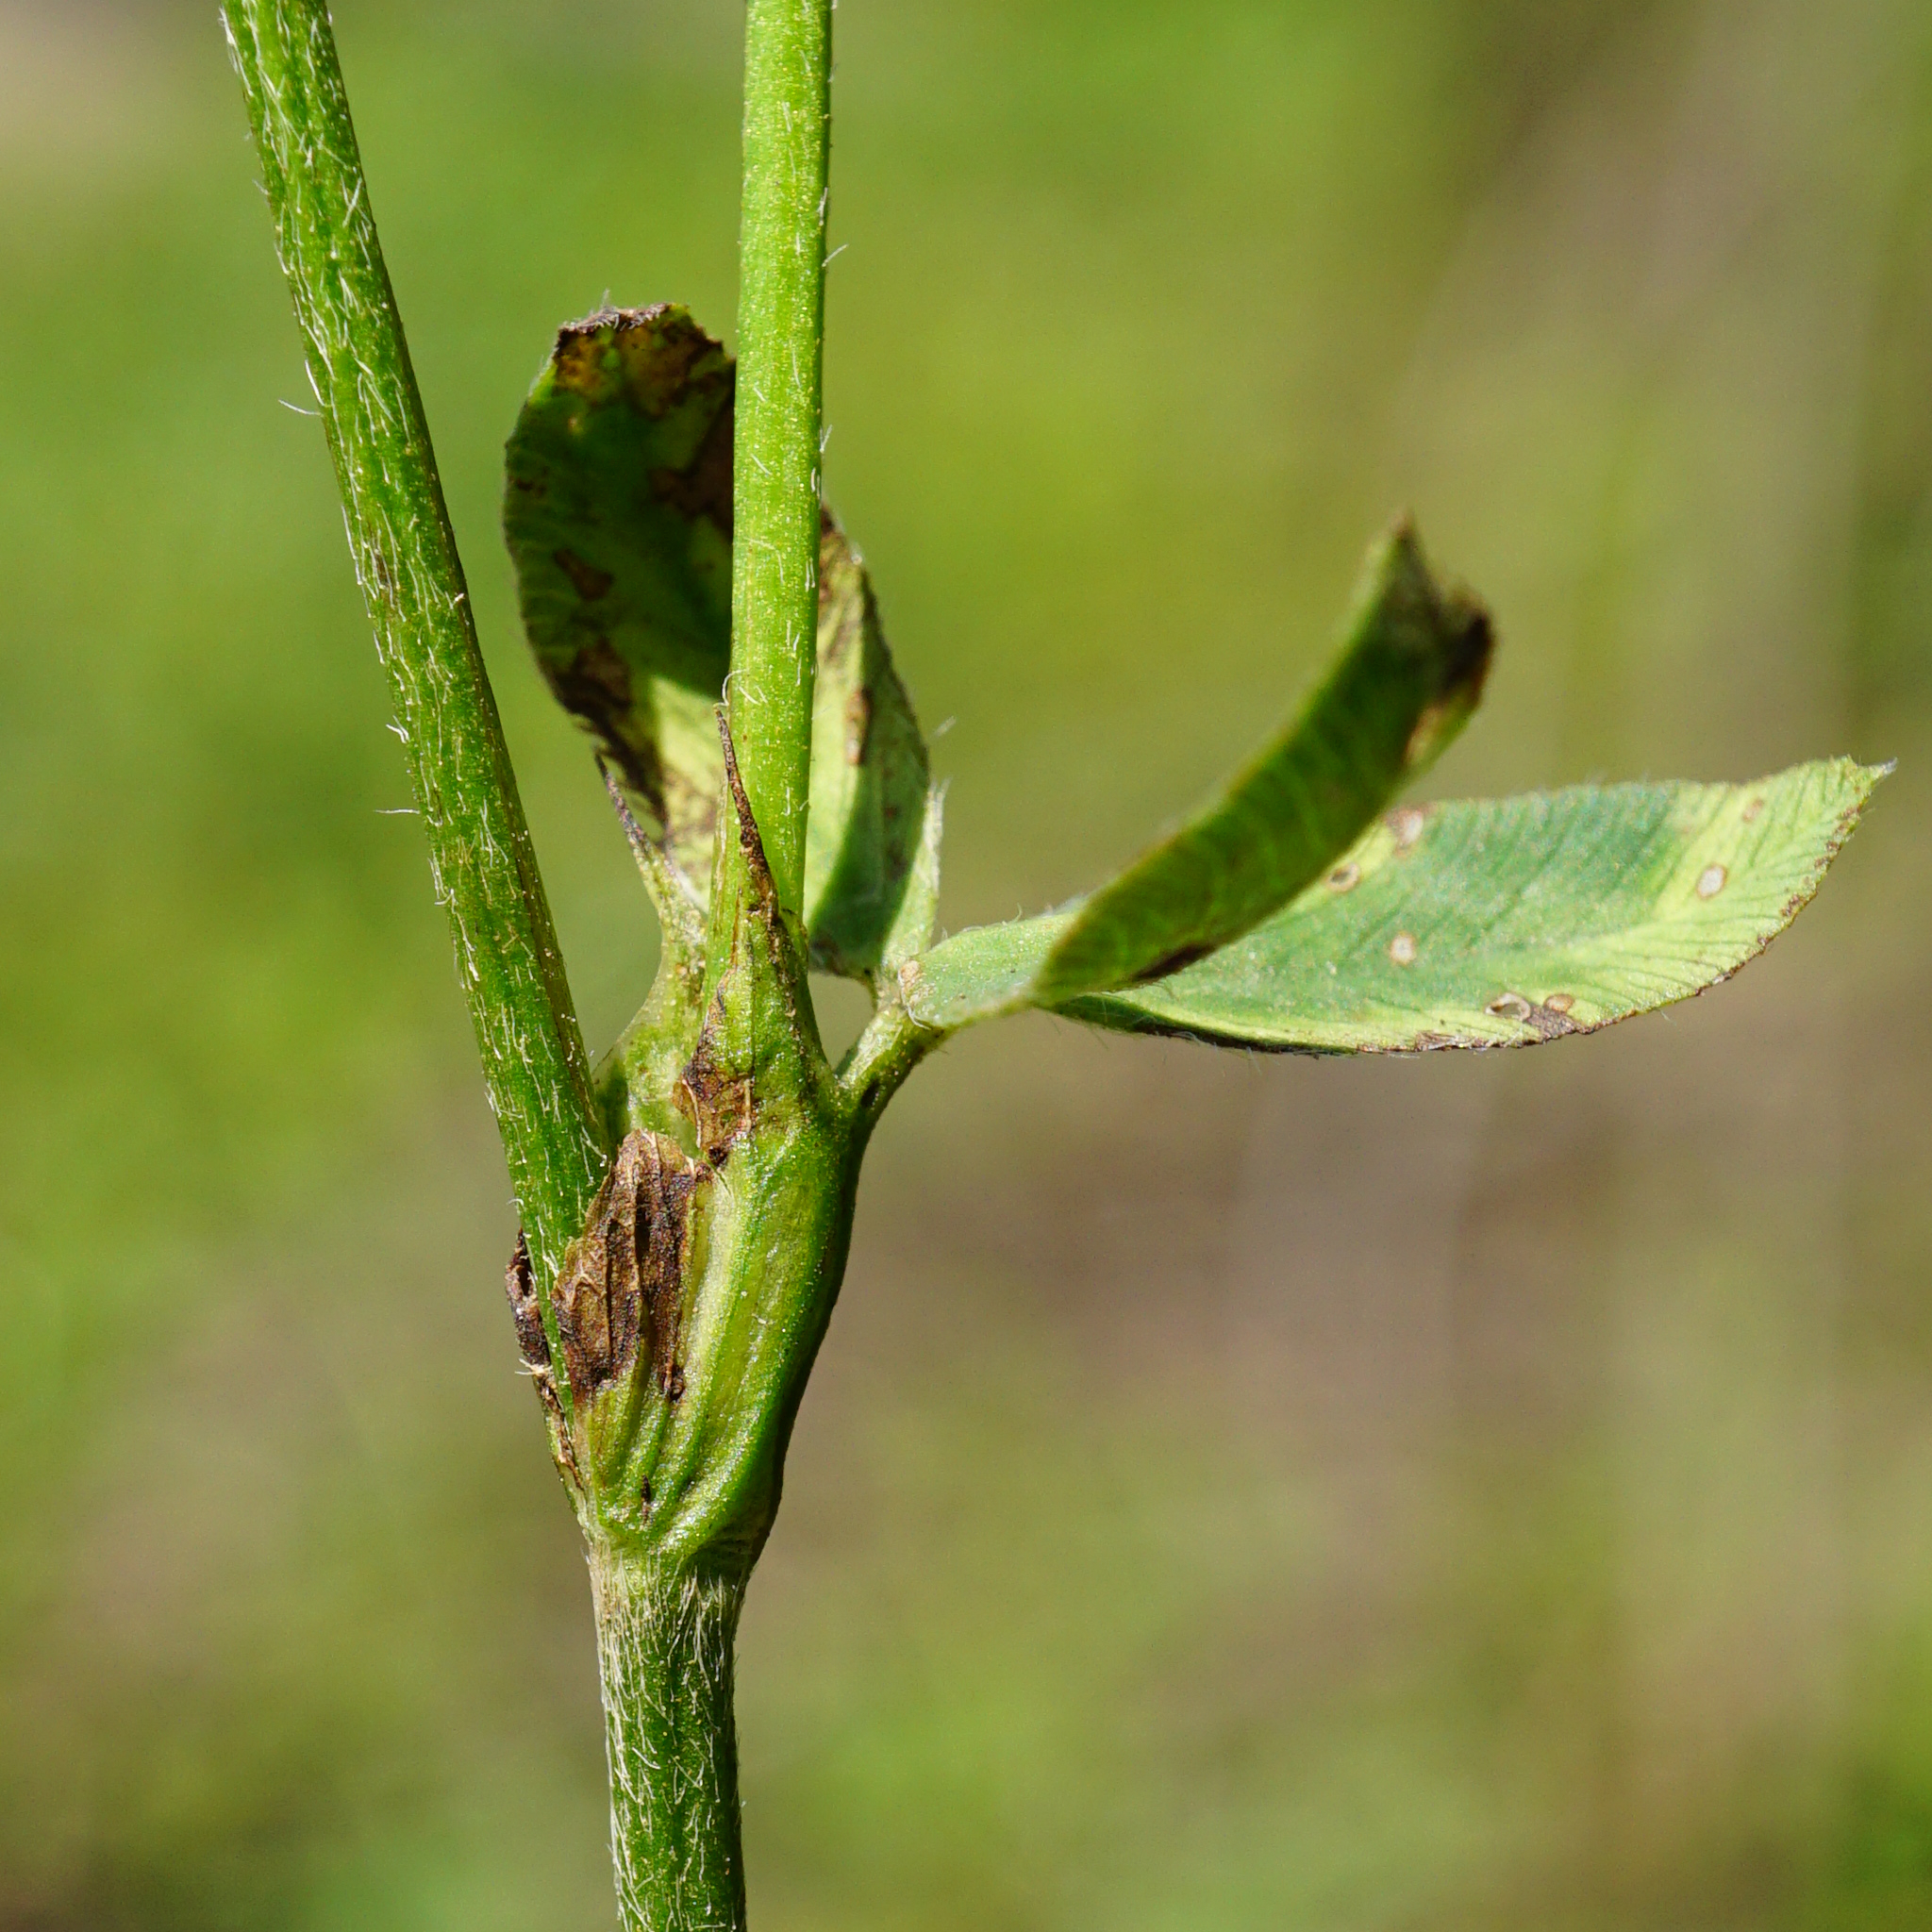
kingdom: Plantae
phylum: Tracheophyta
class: Magnoliopsida
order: Fabales
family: Fabaceae
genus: Trifolium
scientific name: Trifolium pratense
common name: Red clover
